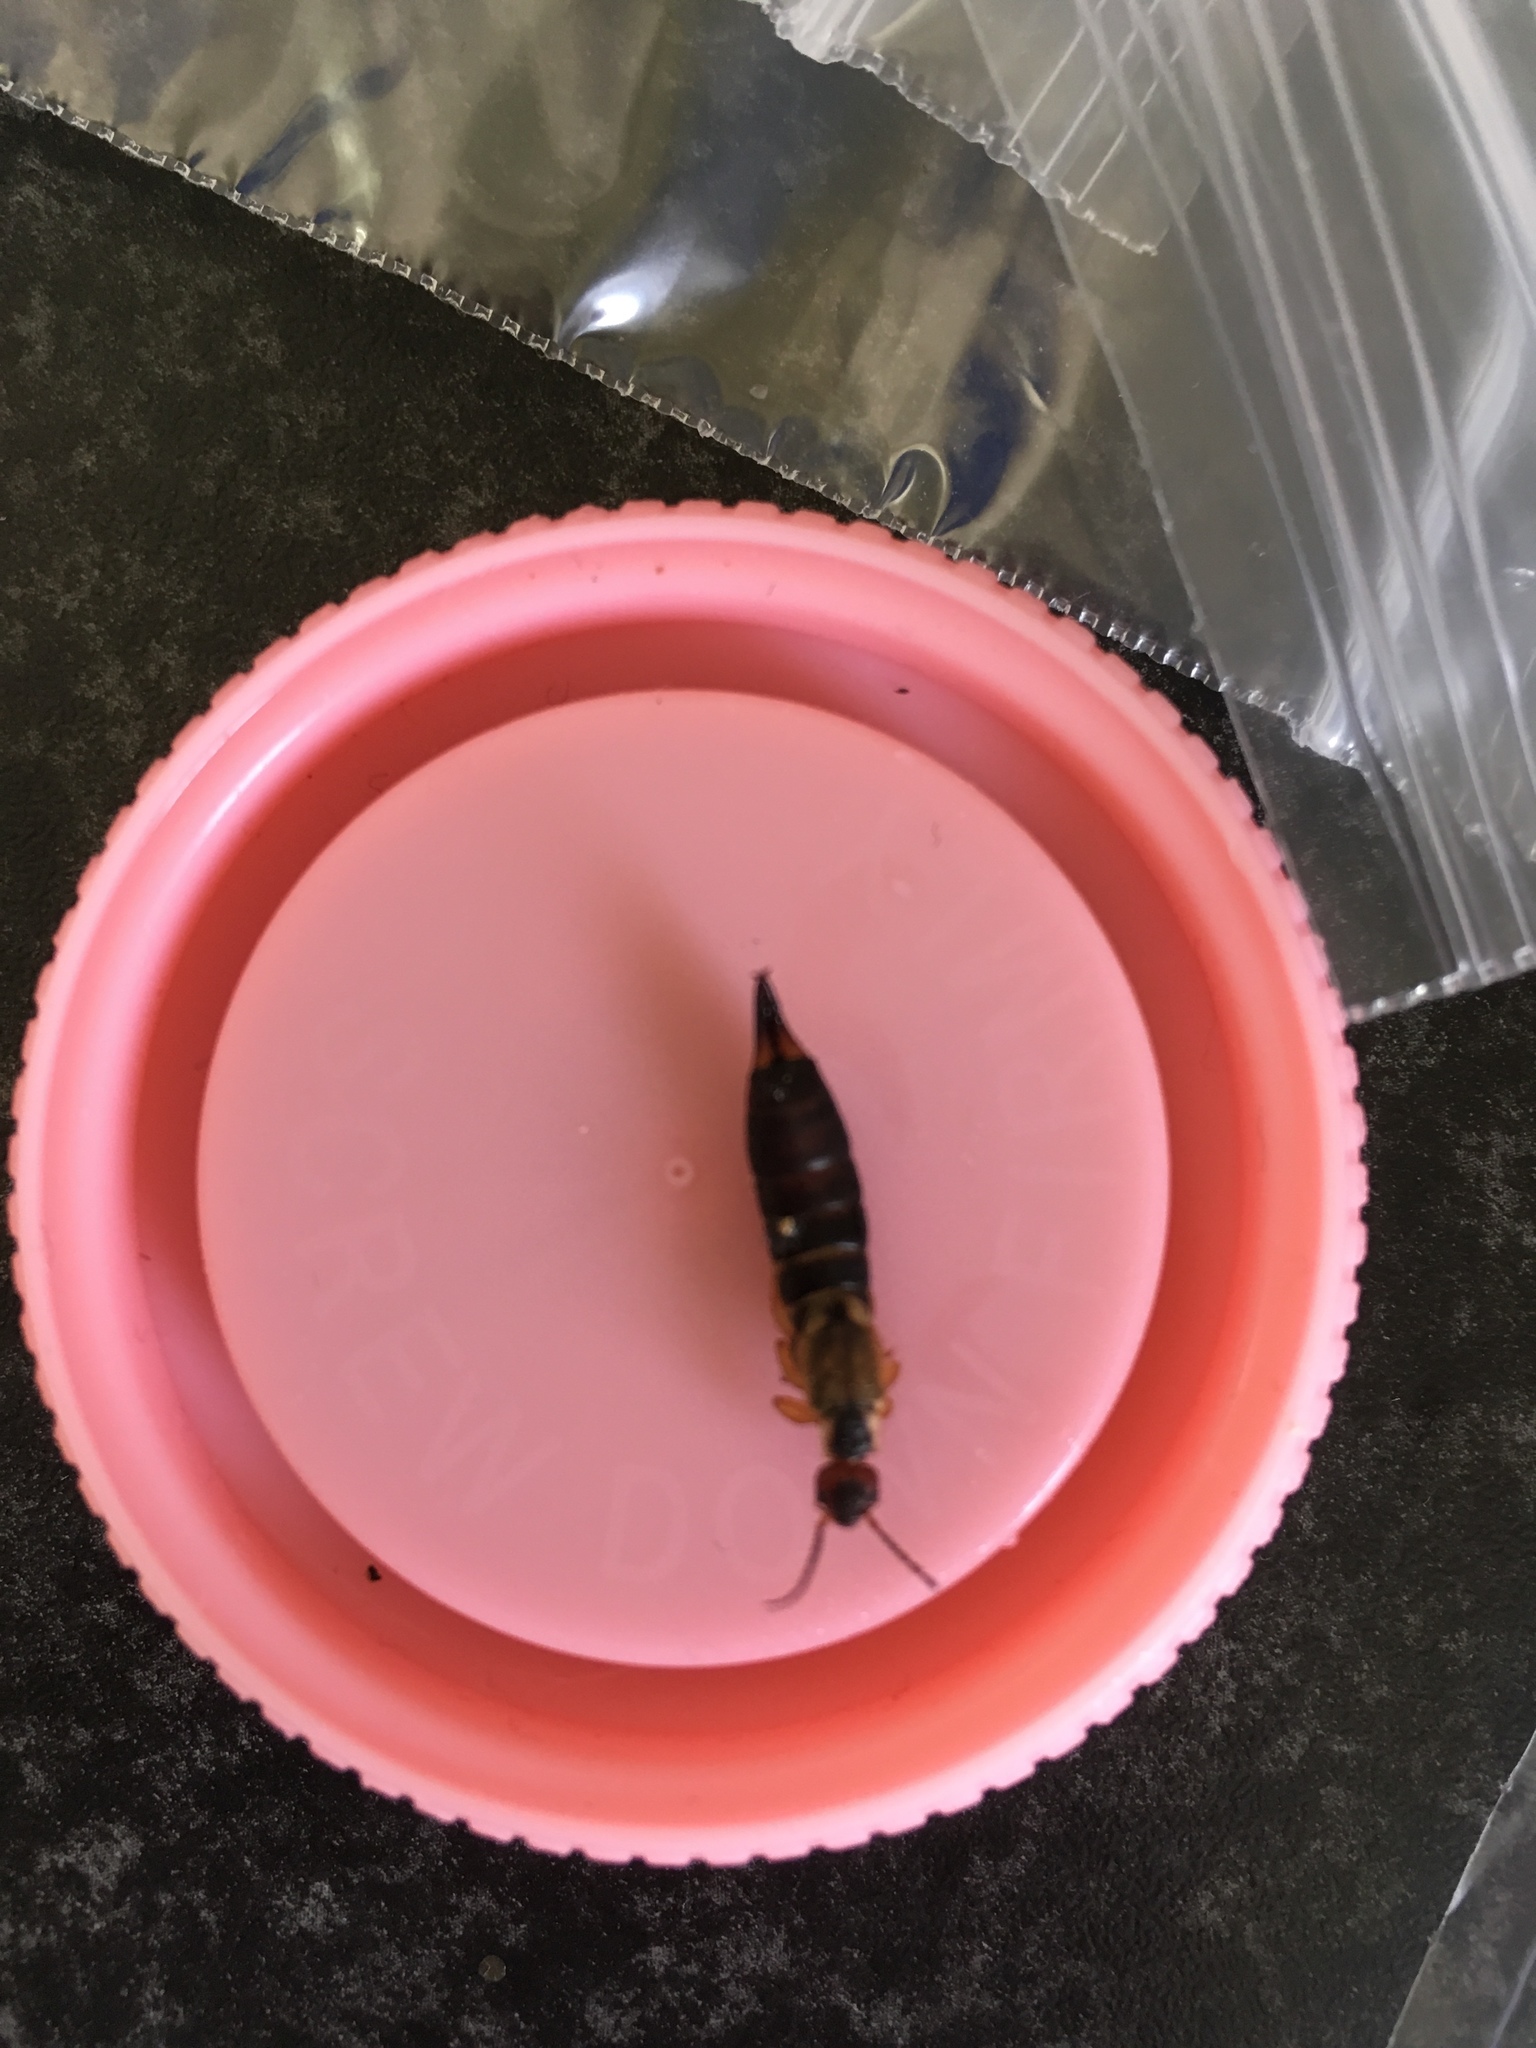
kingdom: Animalia
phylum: Arthropoda
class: Insecta
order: Dermaptera
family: Forficulidae
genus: Forficula
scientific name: Forficula
